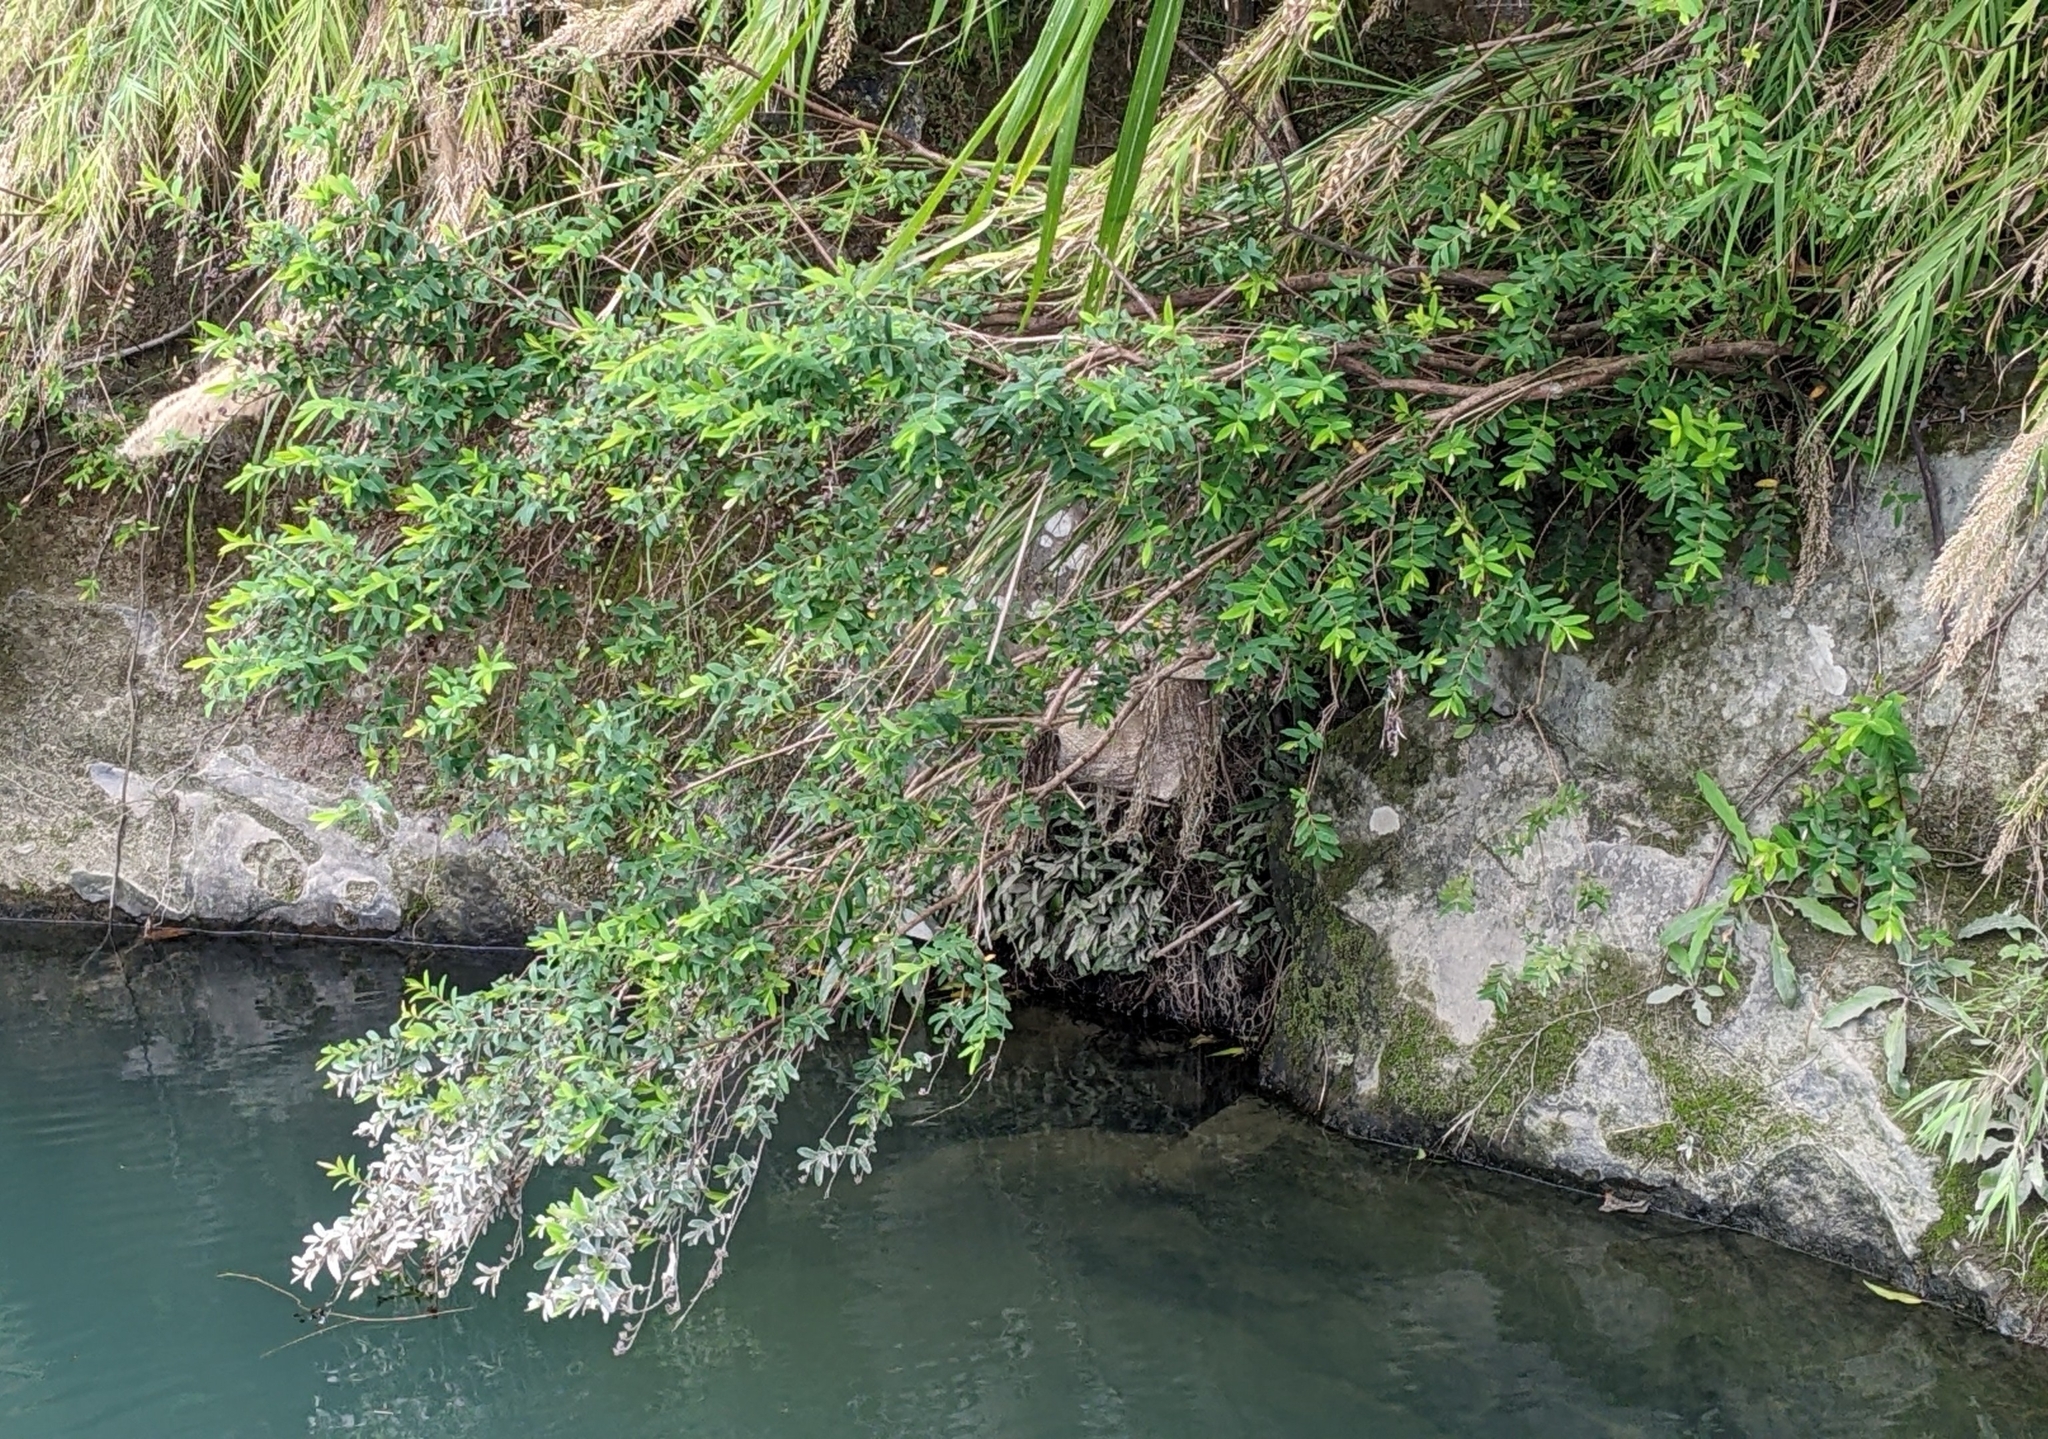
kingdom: Plantae
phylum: Tracheophyta
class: Magnoliopsida
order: Malpighiales
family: Hypericaceae
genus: Hypericum
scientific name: Hypericum subalatum
